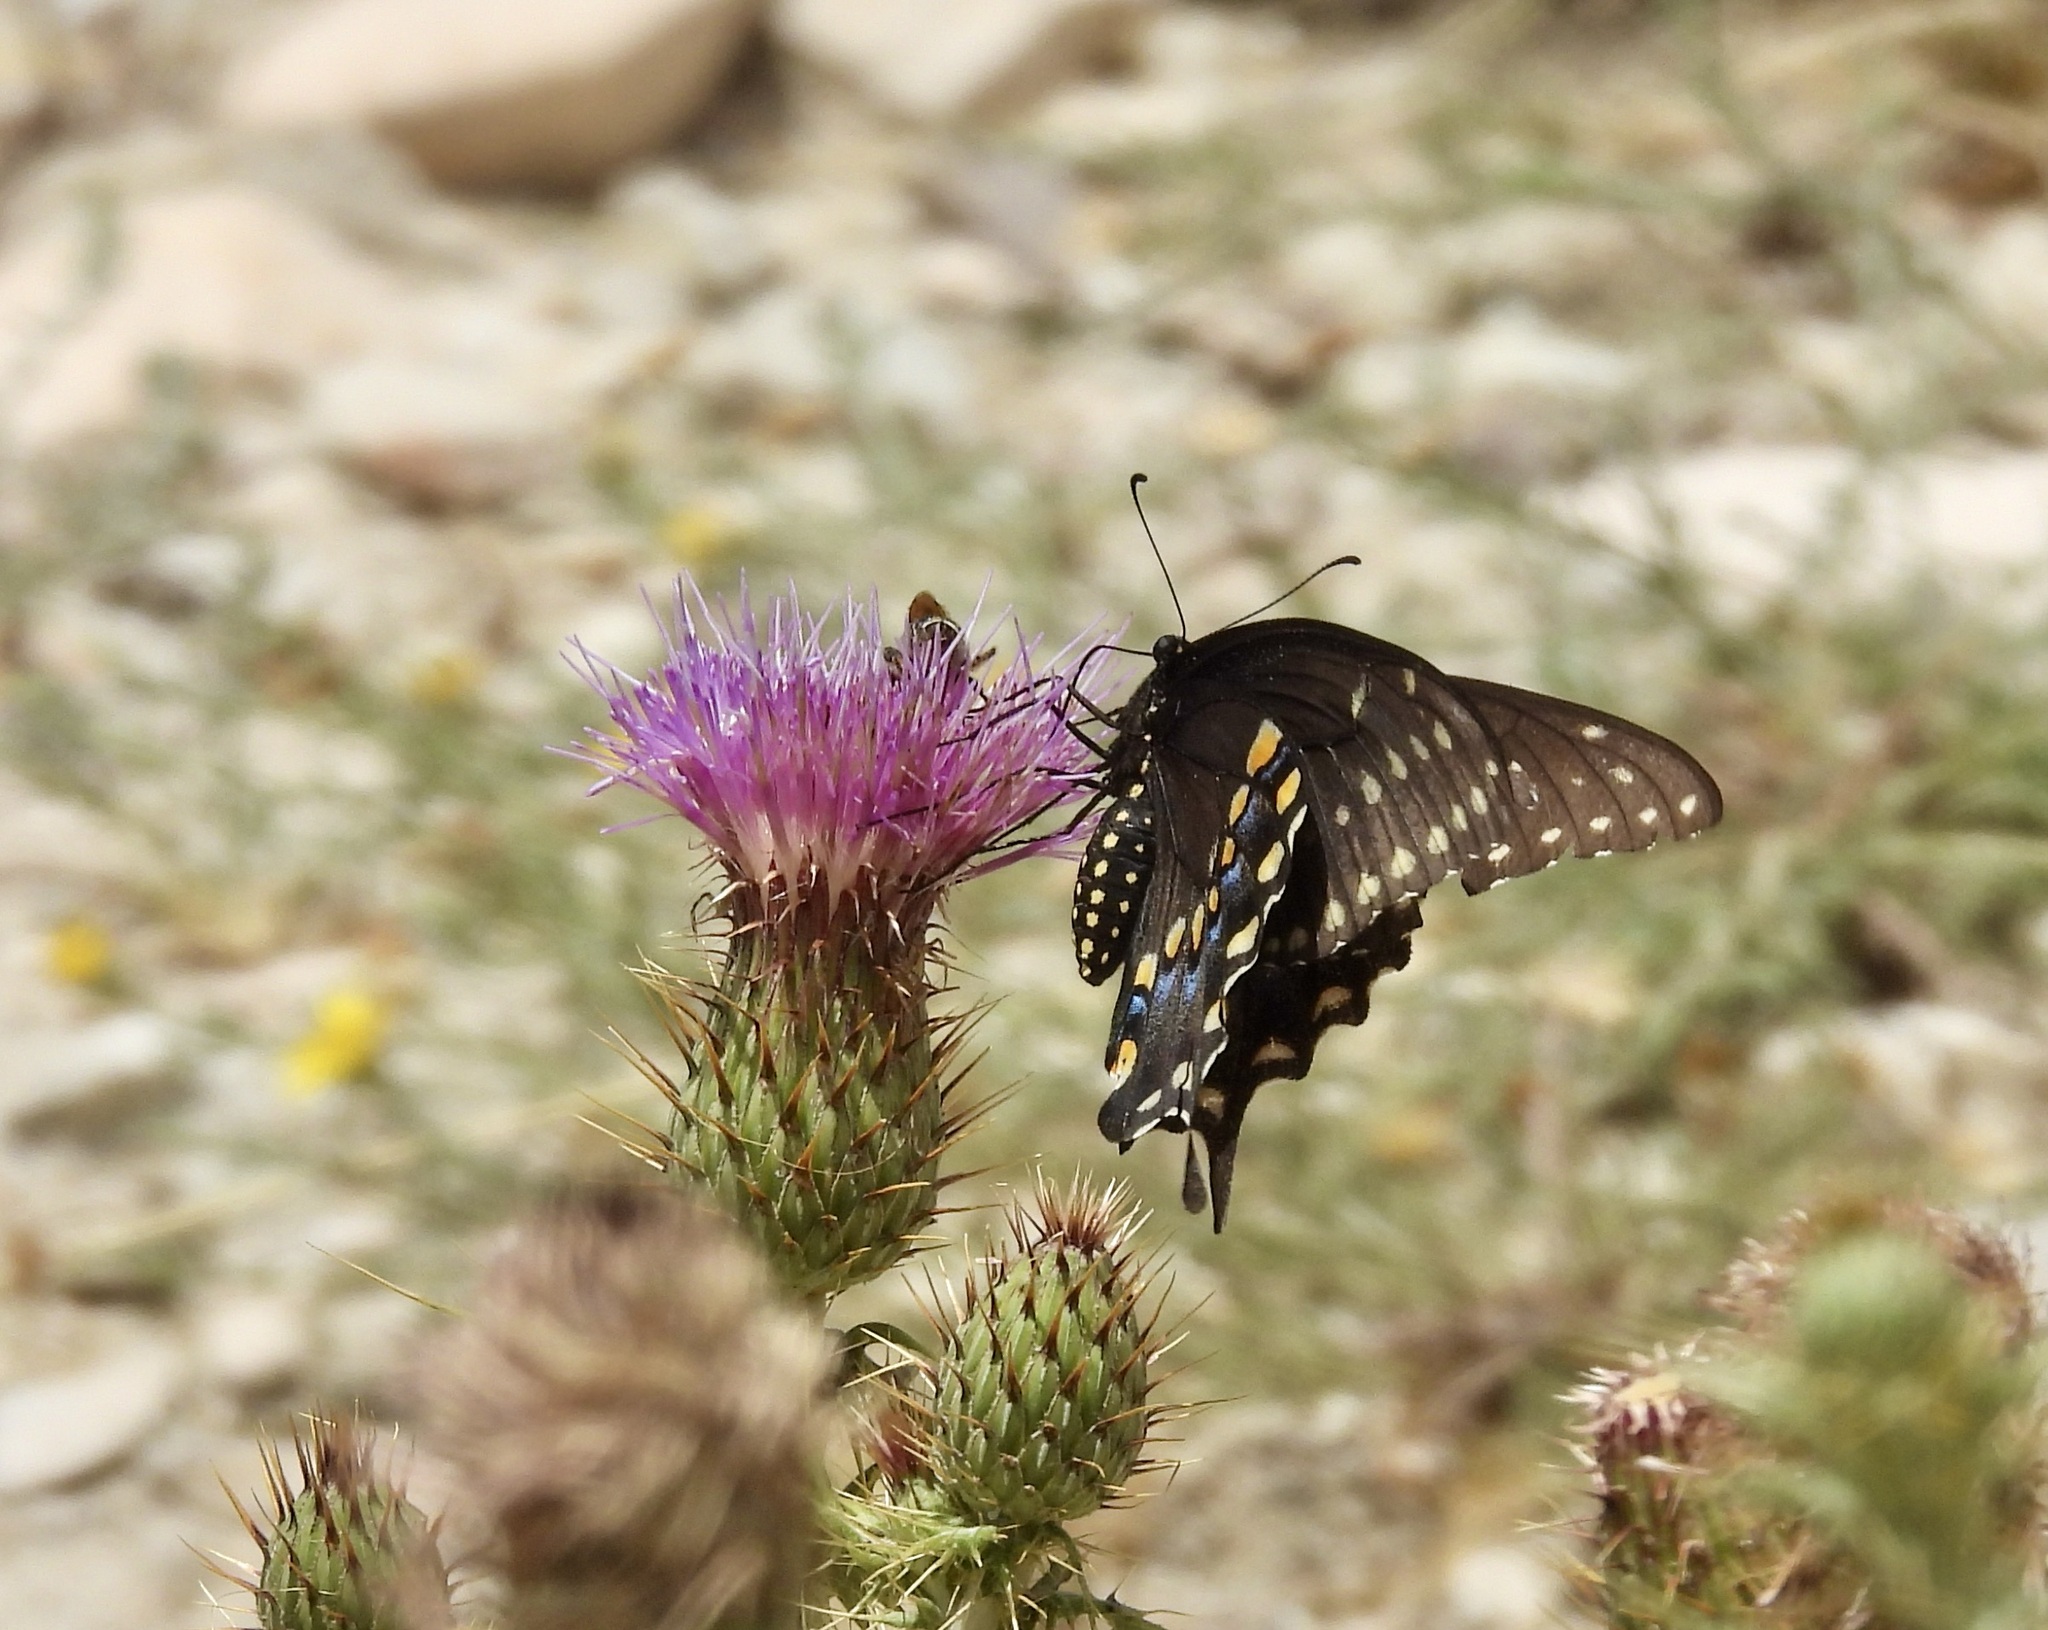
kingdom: Animalia
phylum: Arthropoda
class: Insecta
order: Lepidoptera
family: Papilionidae
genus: Papilio
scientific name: Papilio polyxenes
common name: Black swallowtail
